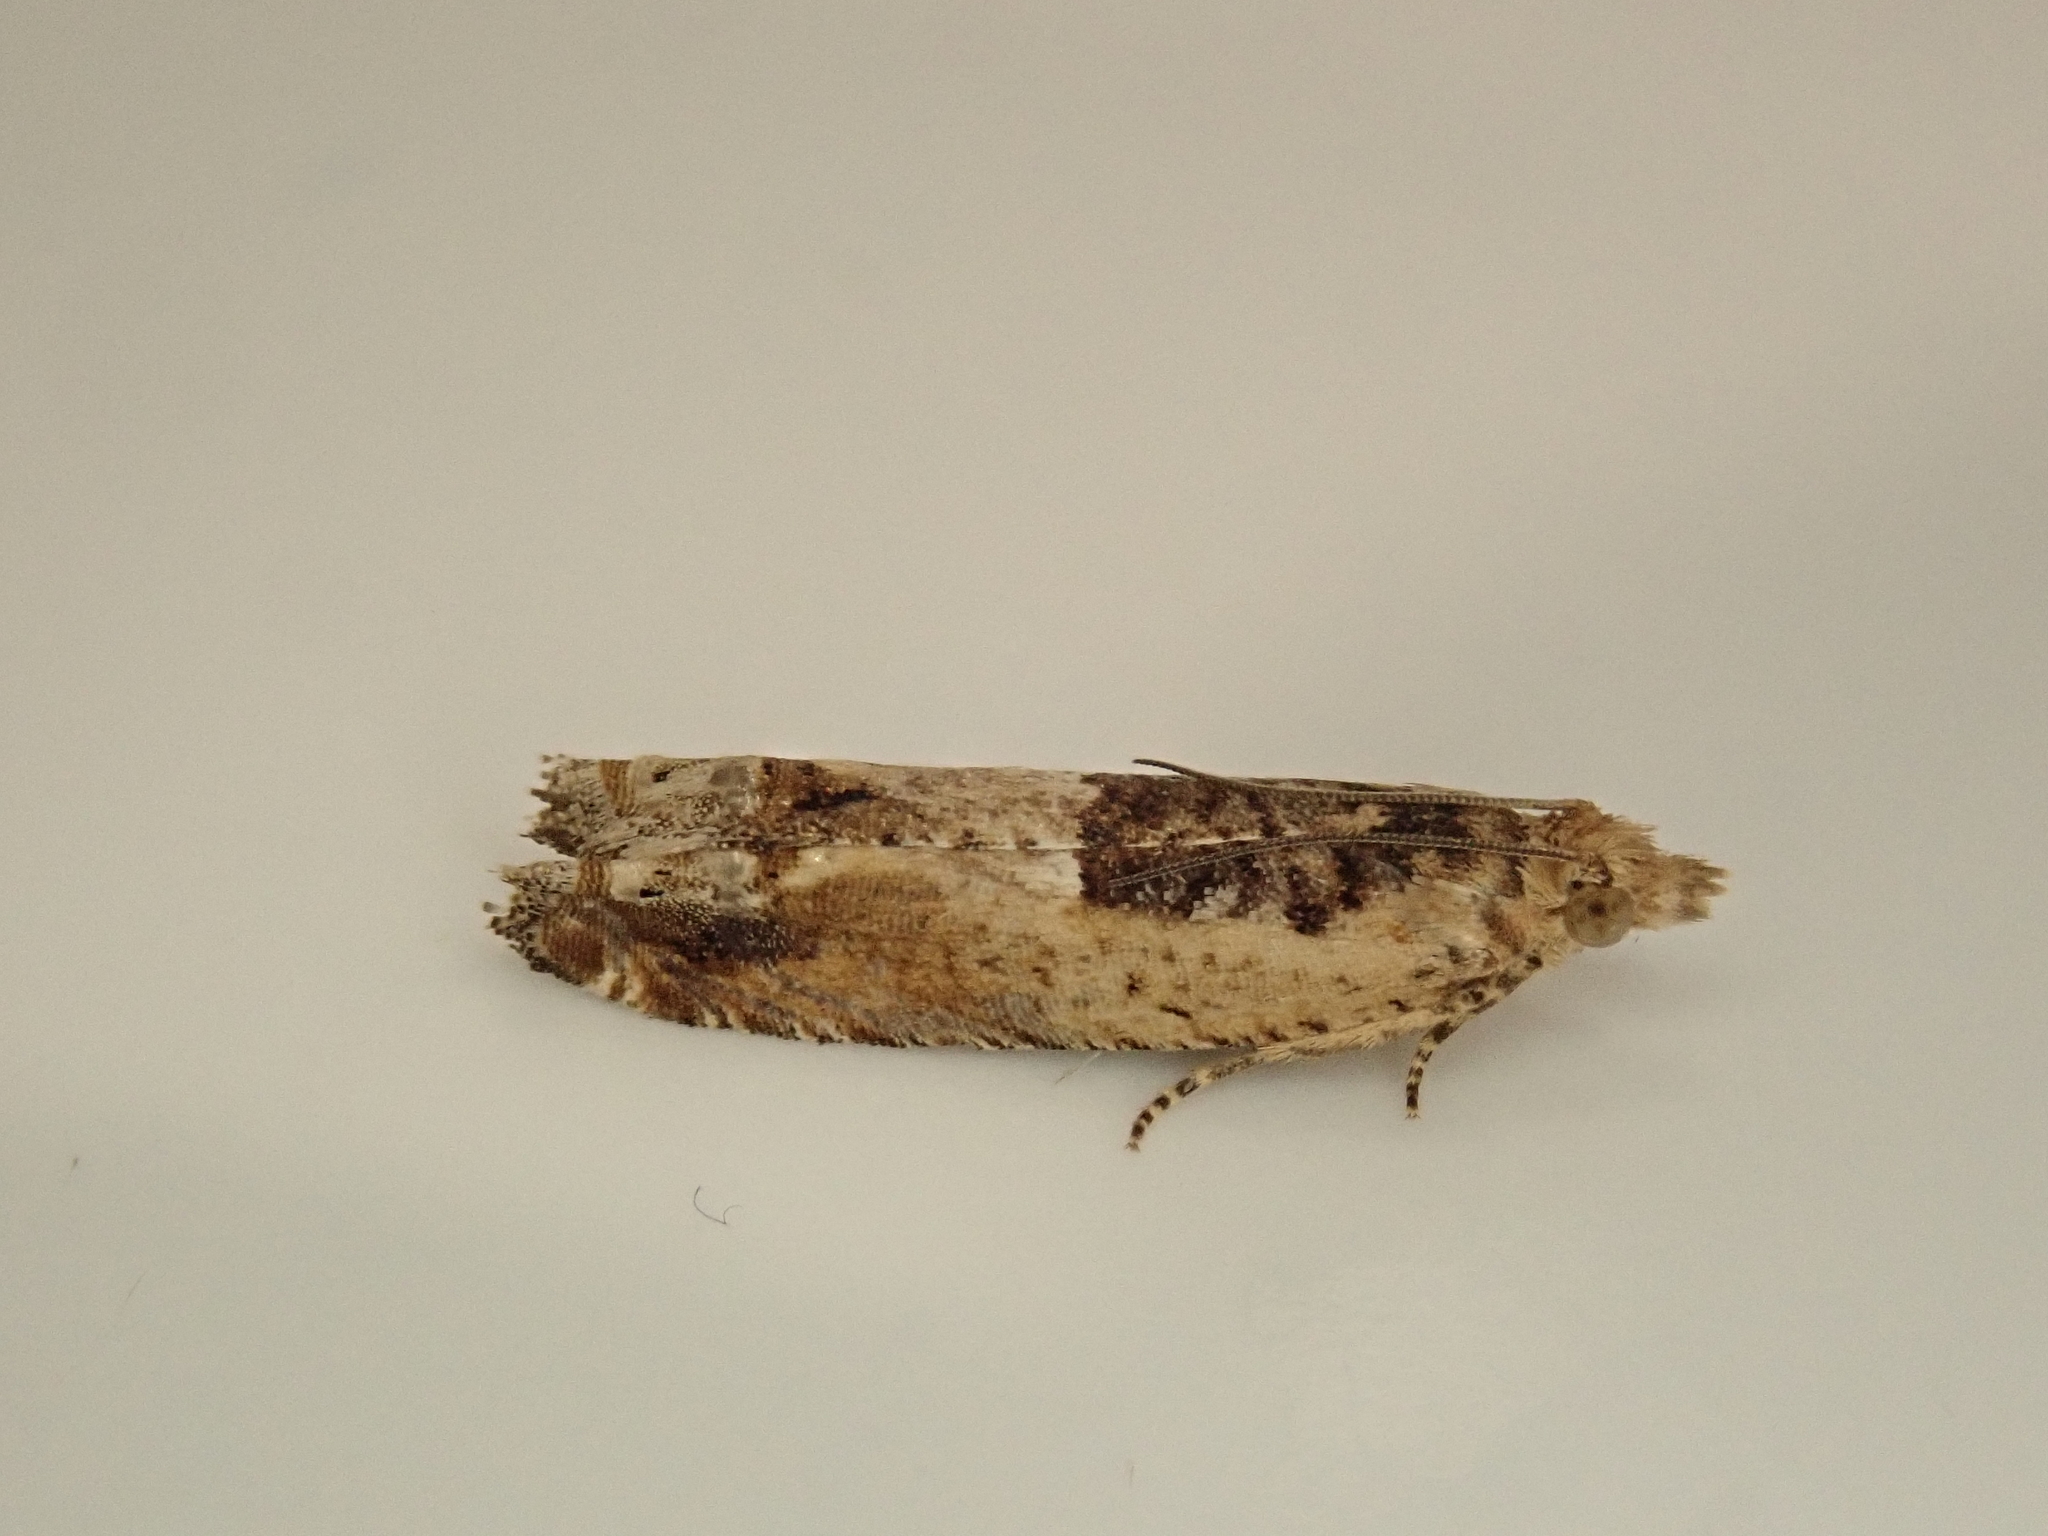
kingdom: Animalia
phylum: Arthropoda
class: Insecta
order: Lepidoptera
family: Tortricidae
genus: Crocidosema
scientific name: Crocidosema plebejana
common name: Southern bell
